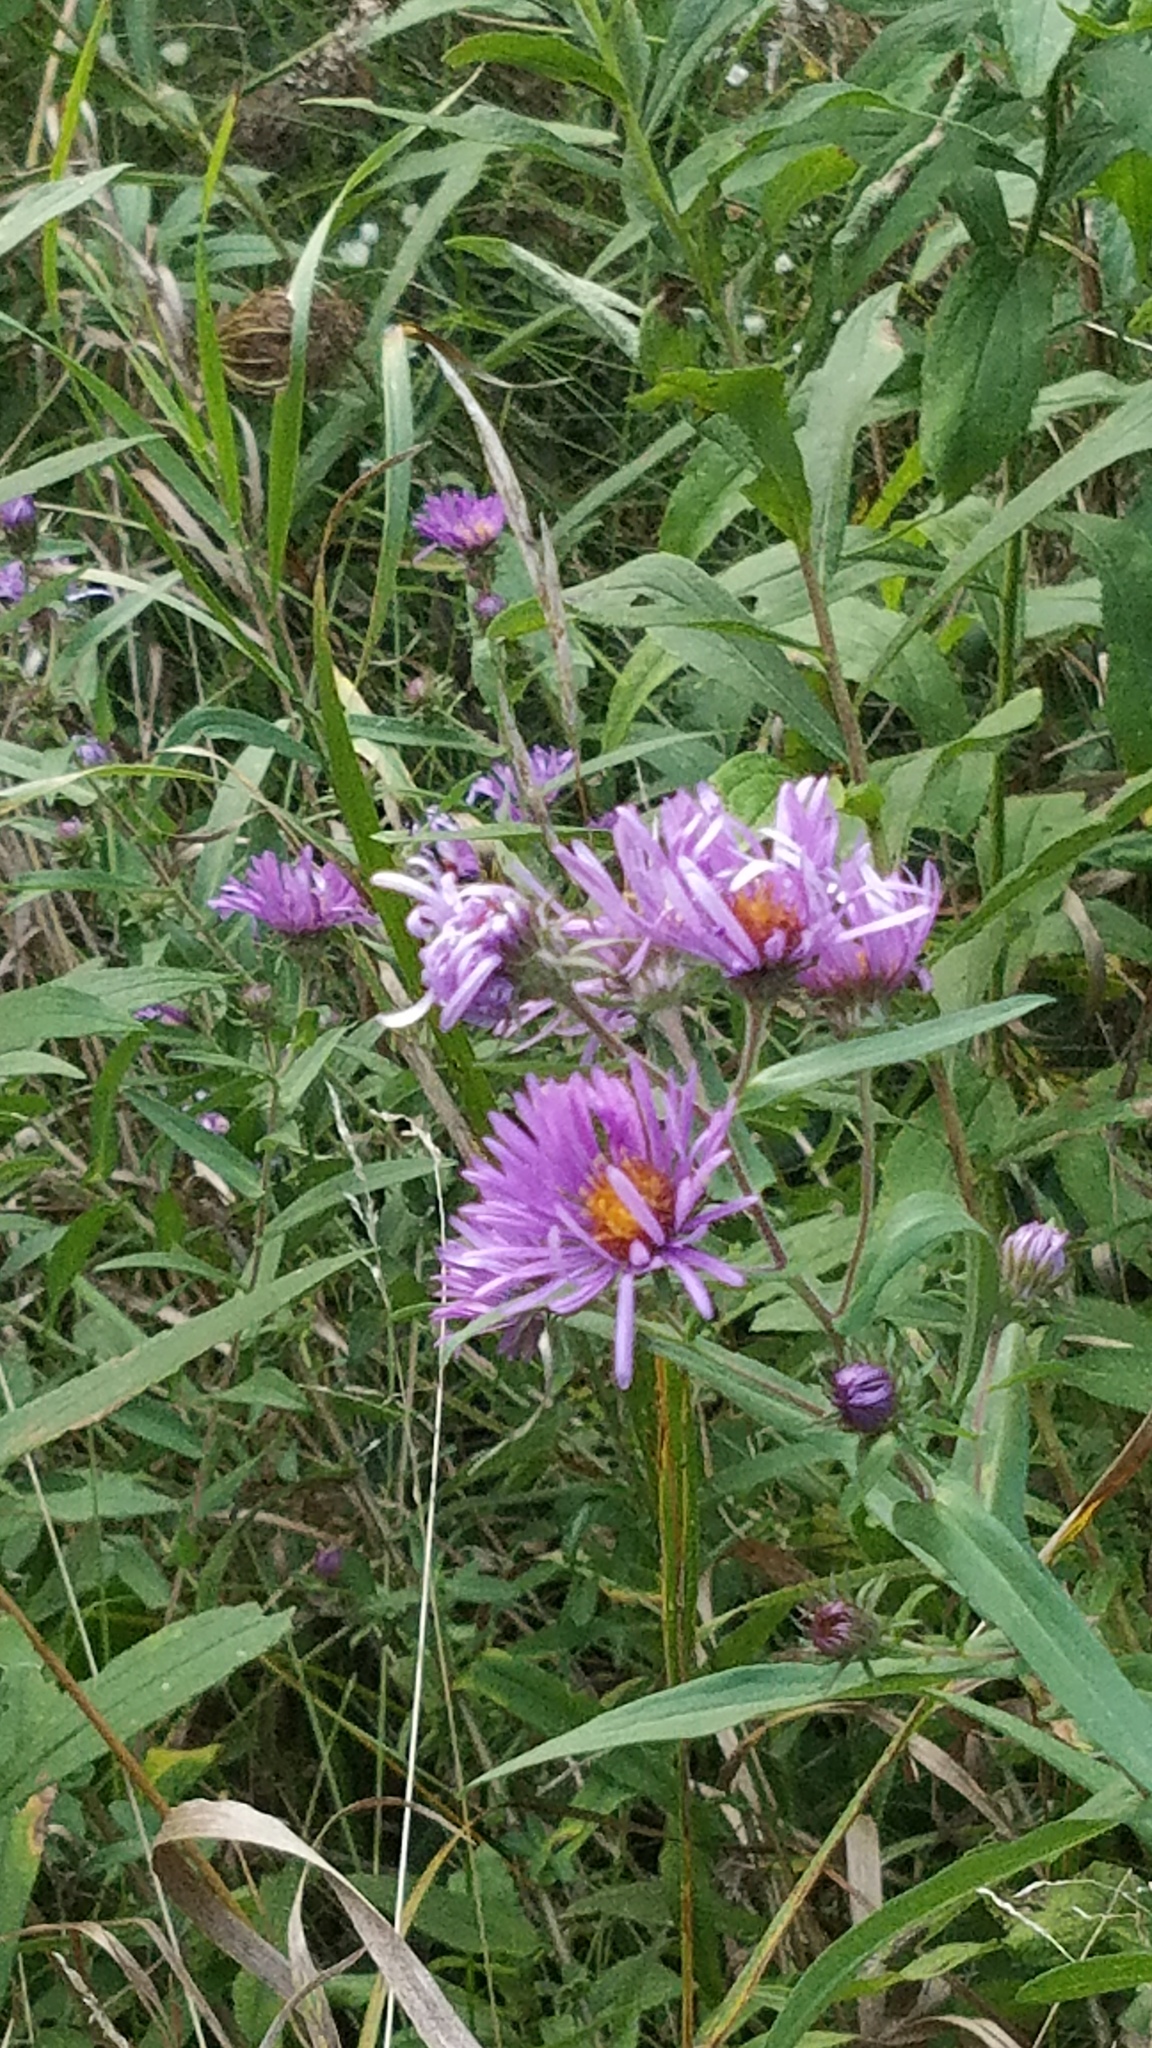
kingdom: Plantae
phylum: Tracheophyta
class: Magnoliopsida
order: Asterales
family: Asteraceae
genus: Symphyotrichum
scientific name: Symphyotrichum novae-angliae
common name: Michaelmas daisy
